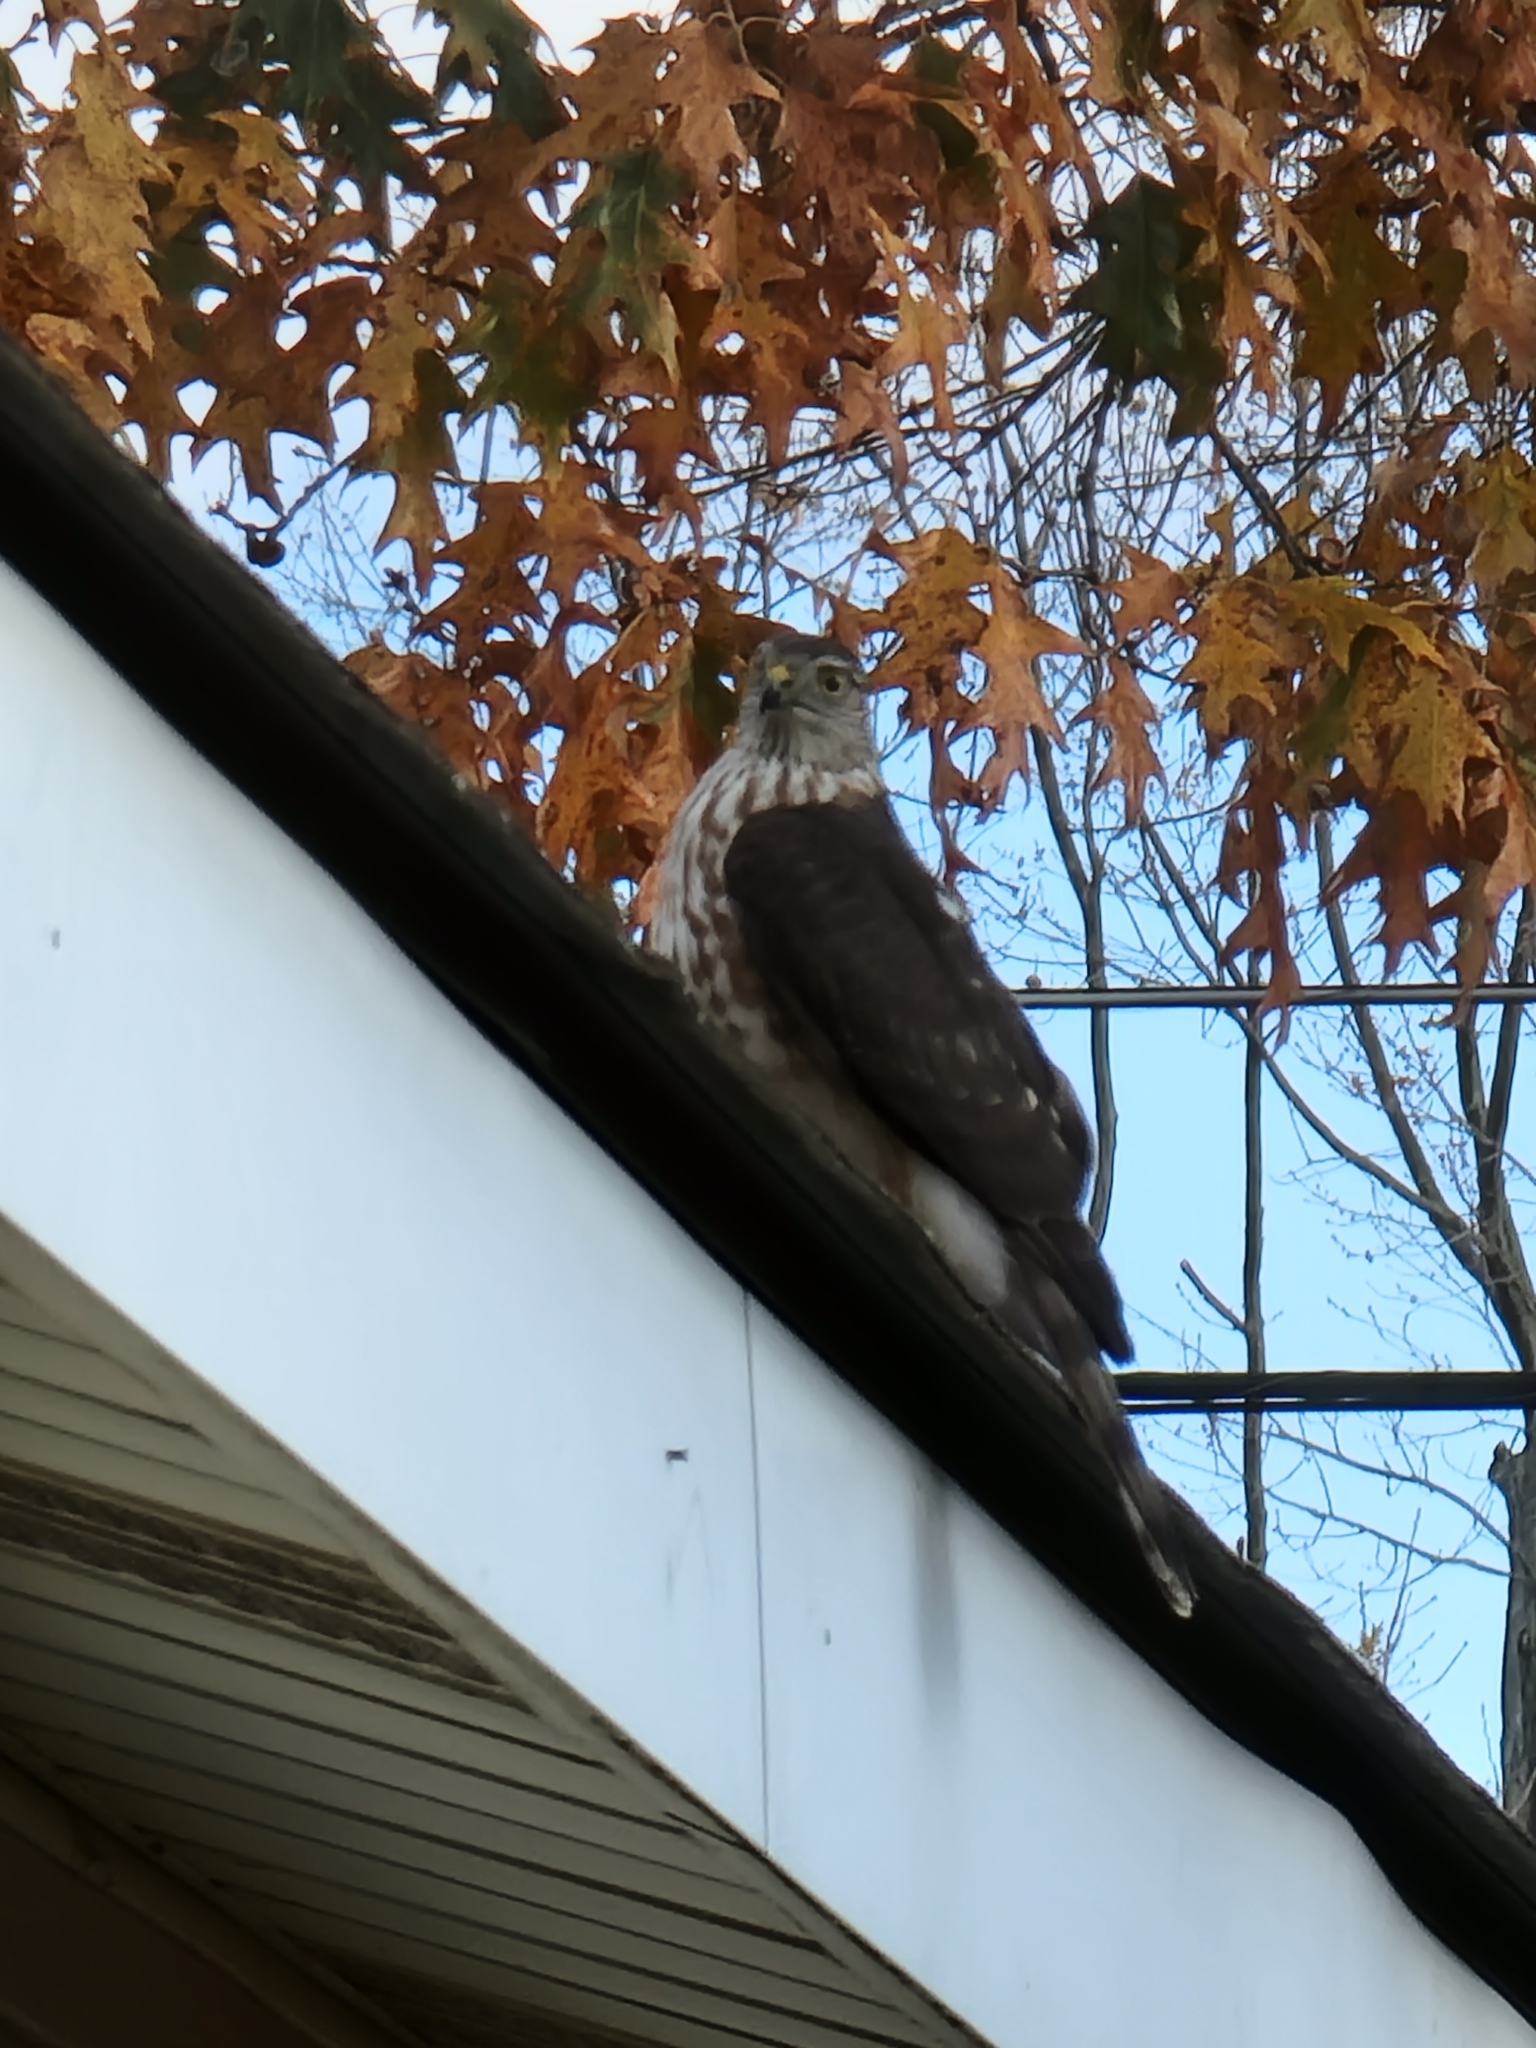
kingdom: Animalia
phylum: Chordata
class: Aves
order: Accipitriformes
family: Accipitridae
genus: Accipiter
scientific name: Accipiter striatus
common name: Sharp-shinned hawk
